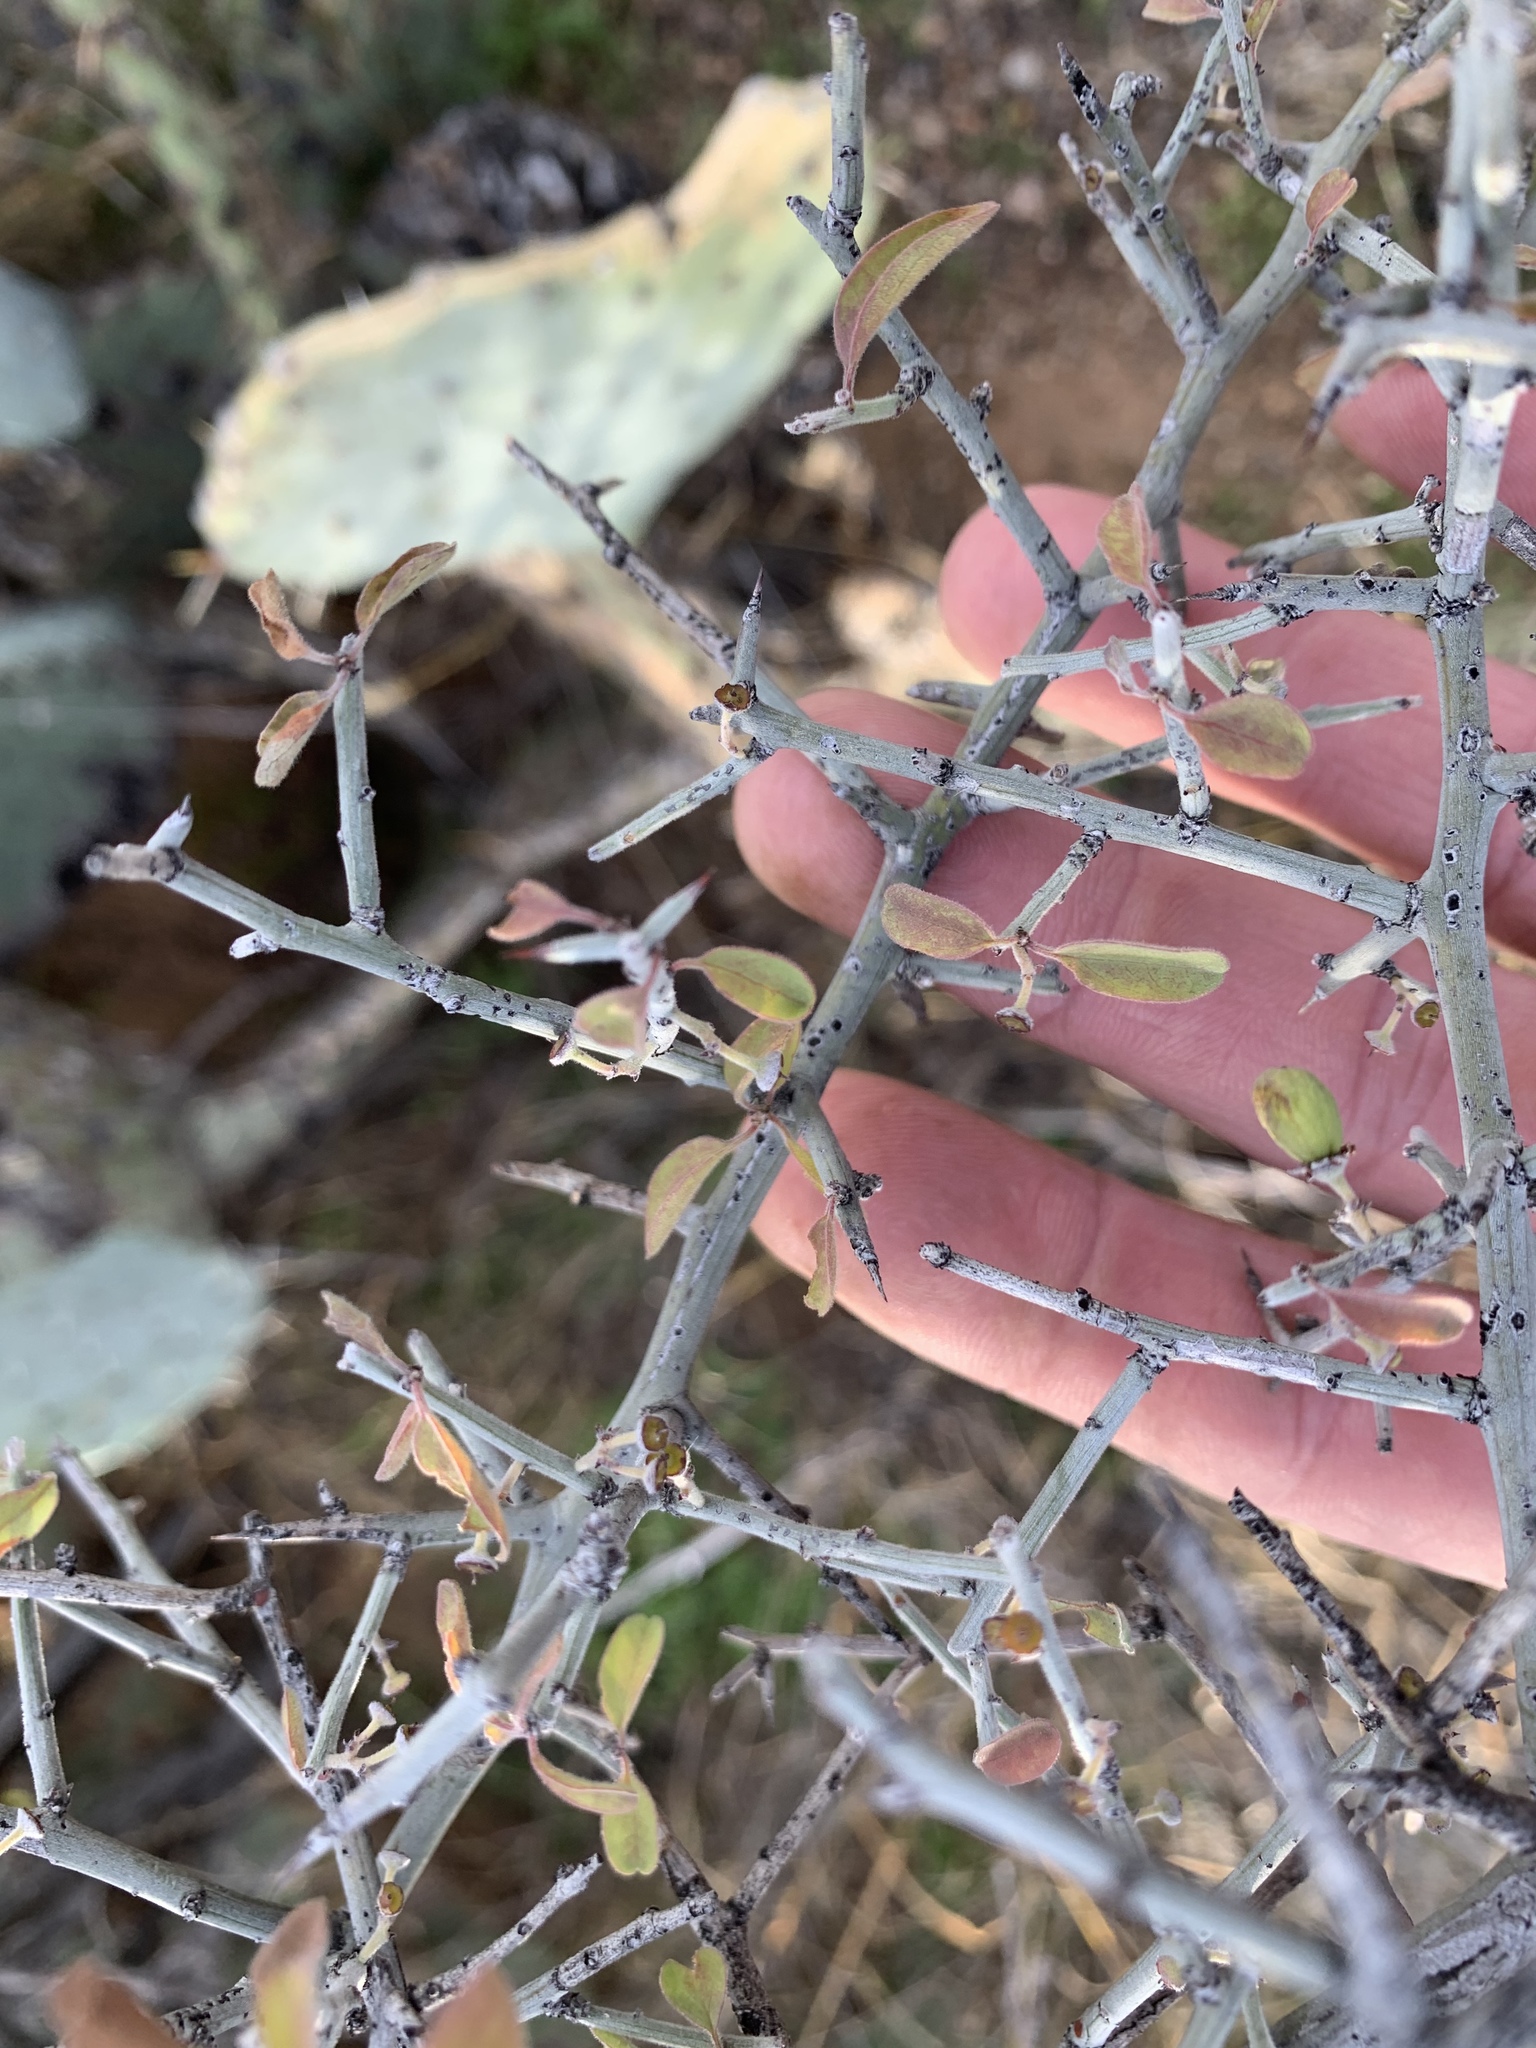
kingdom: Plantae
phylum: Tracheophyta
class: Magnoliopsida
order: Rosales
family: Rhamnaceae
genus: Sarcomphalus
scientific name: Sarcomphalus obtusifolius
